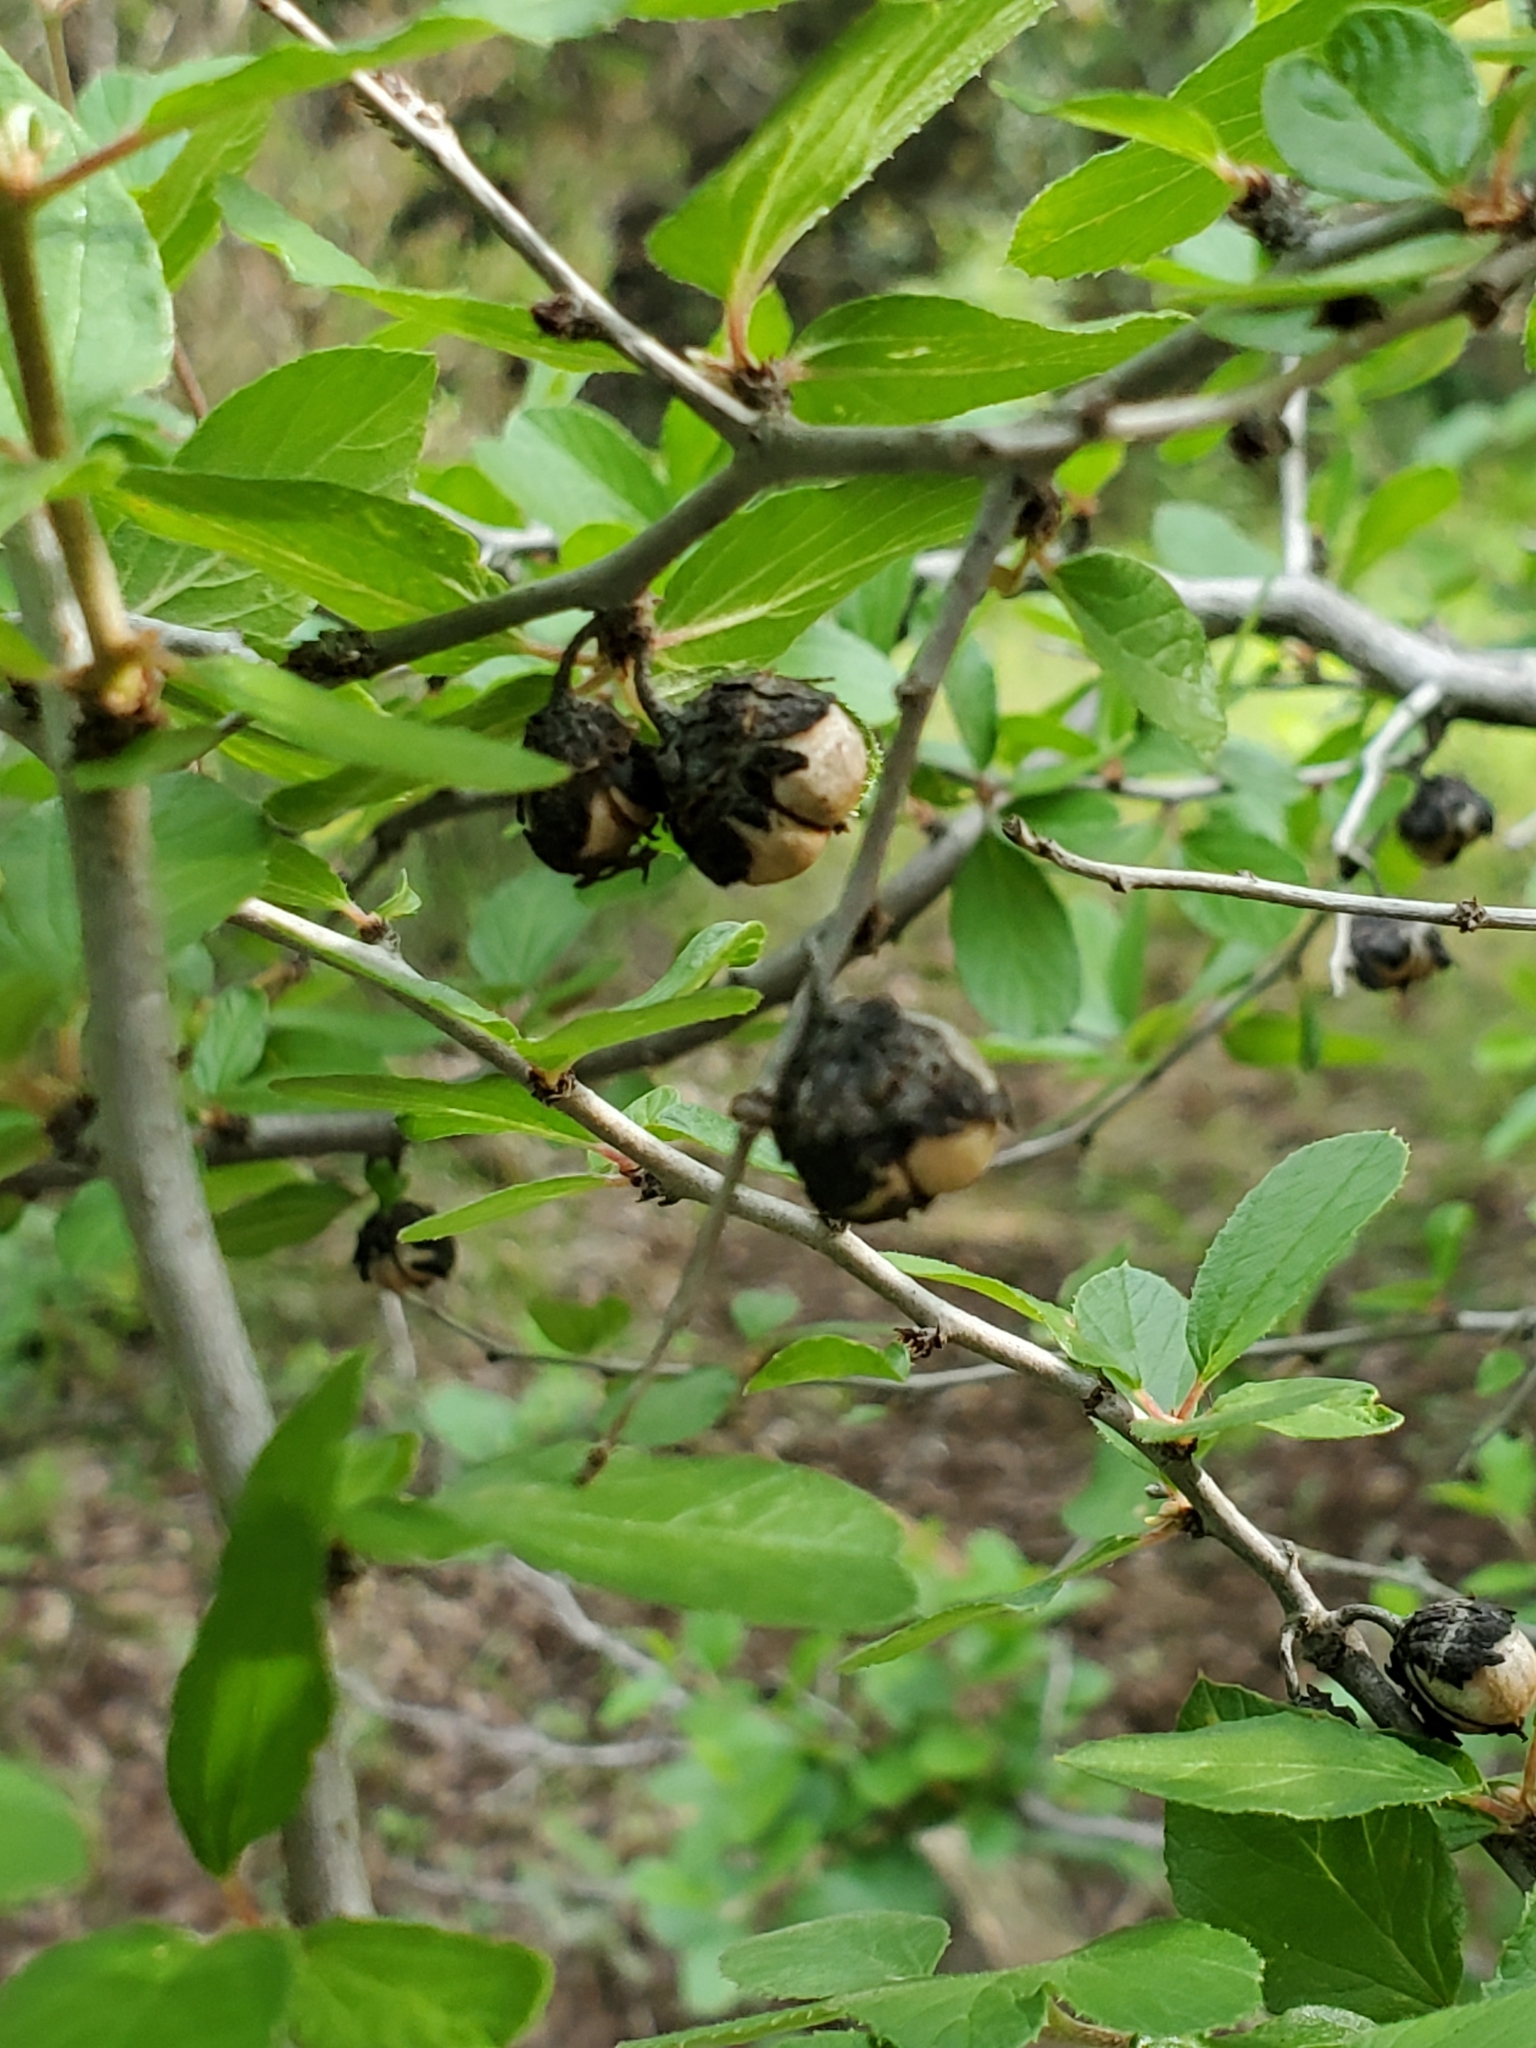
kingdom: Plantae
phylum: Tracheophyta
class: Magnoliopsida
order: Rosales
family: Rhamnaceae
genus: Colubrina
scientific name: Colubrina texensis
